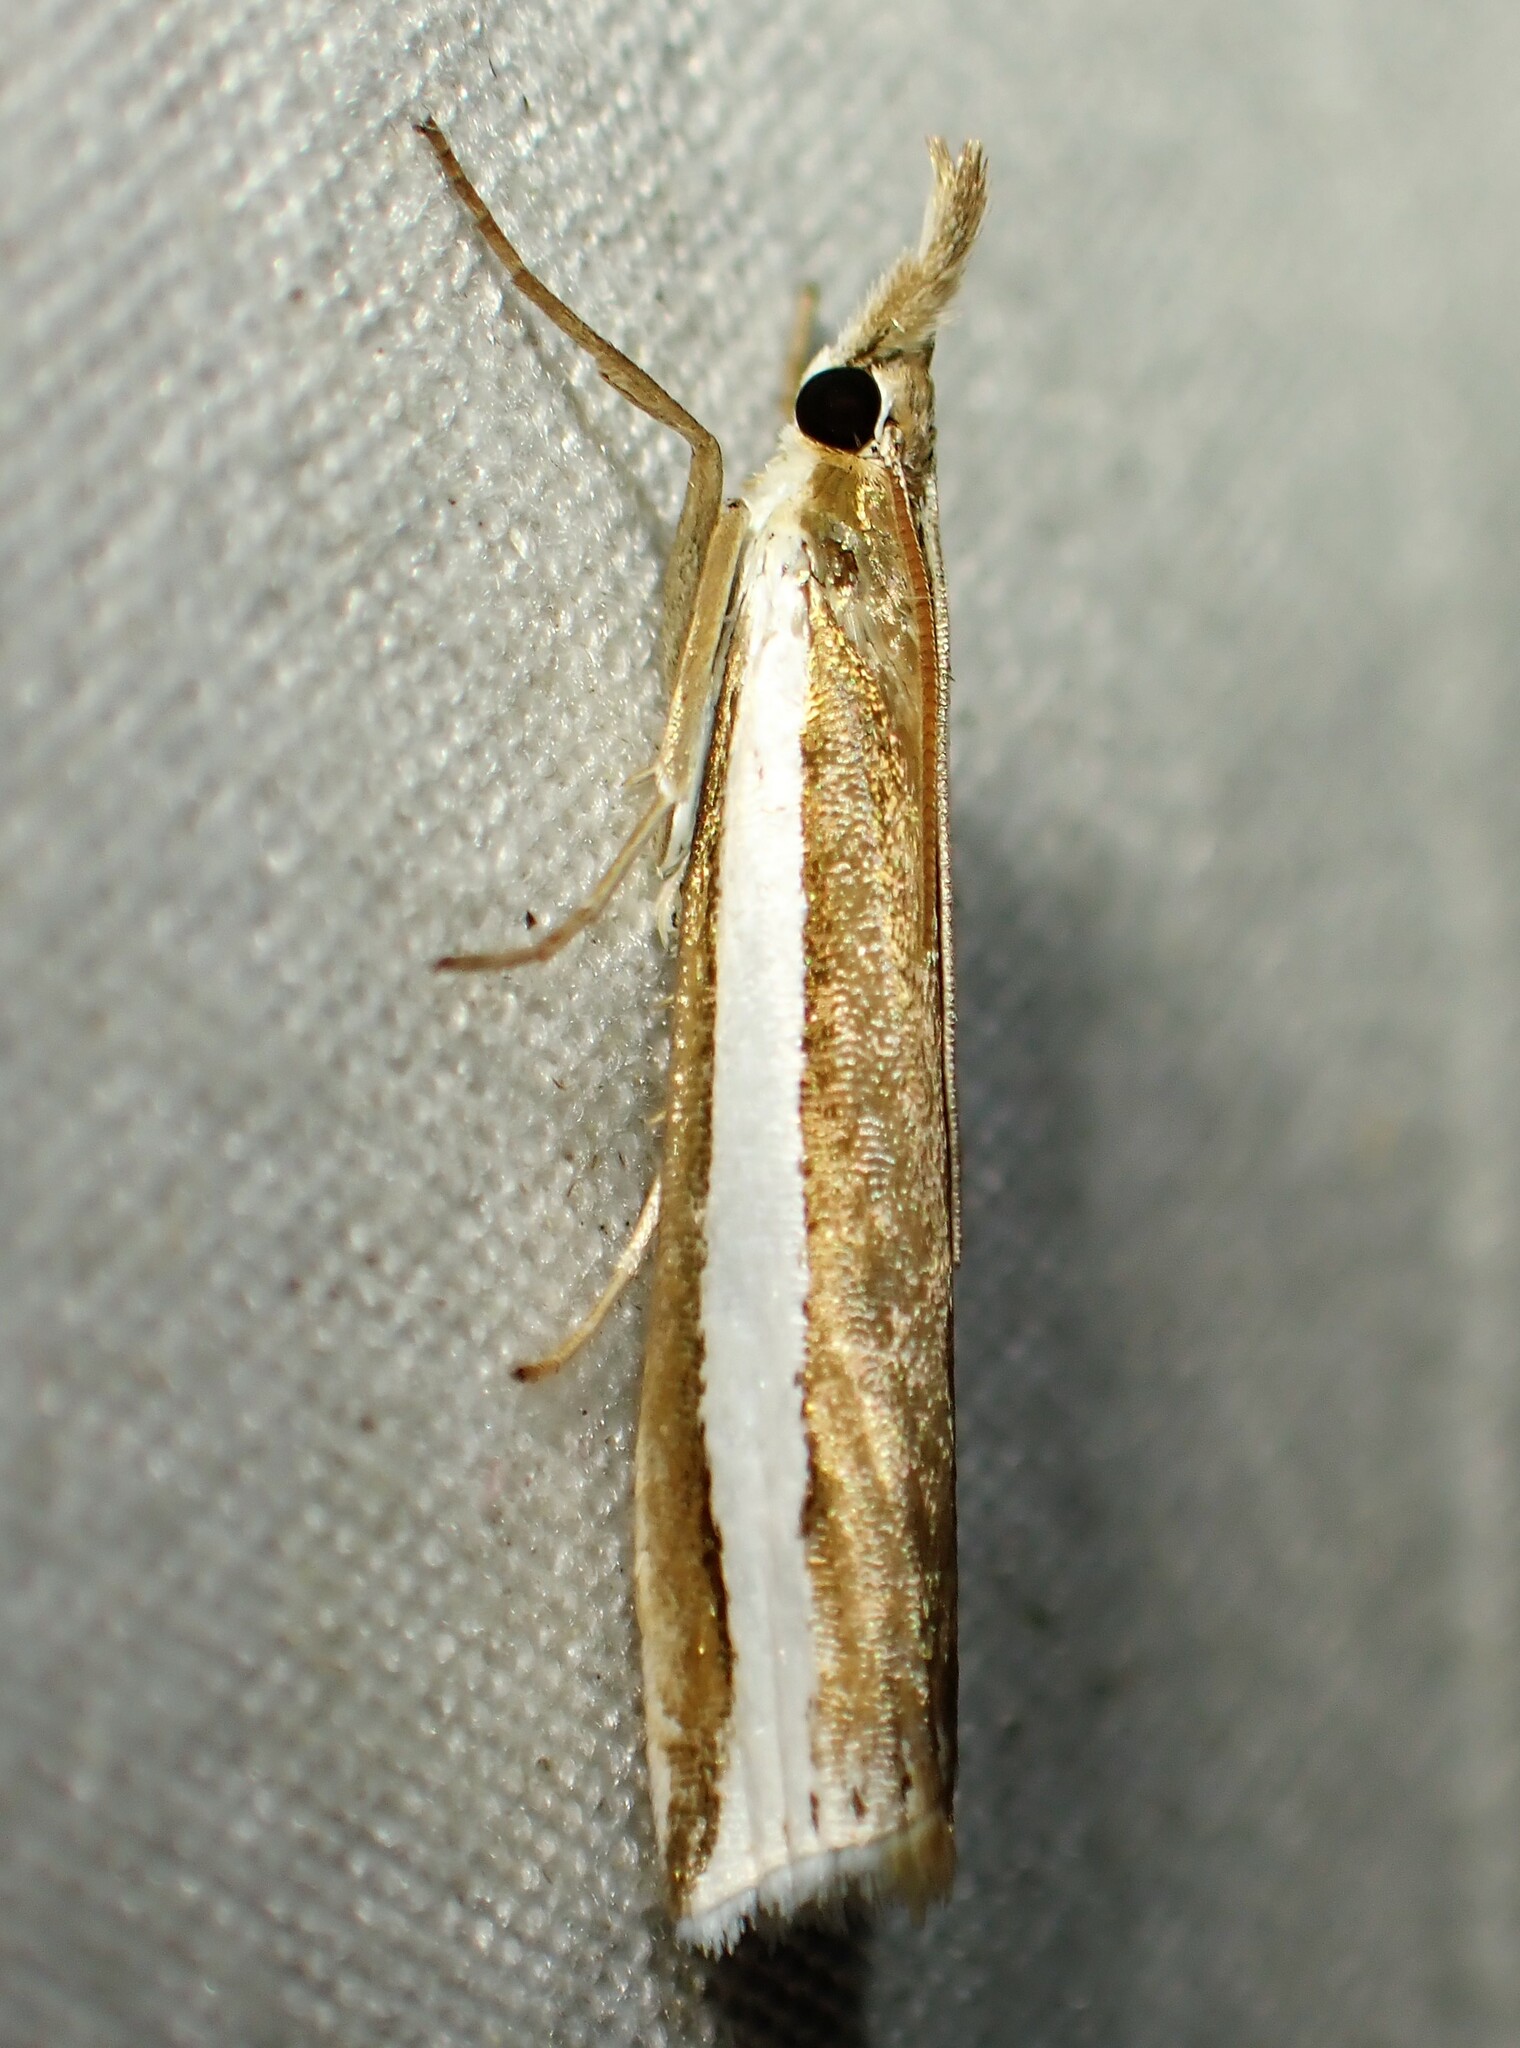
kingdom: Animalia
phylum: Arthropoda
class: Insecta
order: Lepidoptera
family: Crambidae
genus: Crambus
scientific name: Crambus unistriatellus
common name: Wide-stripe grass-veneer moth
